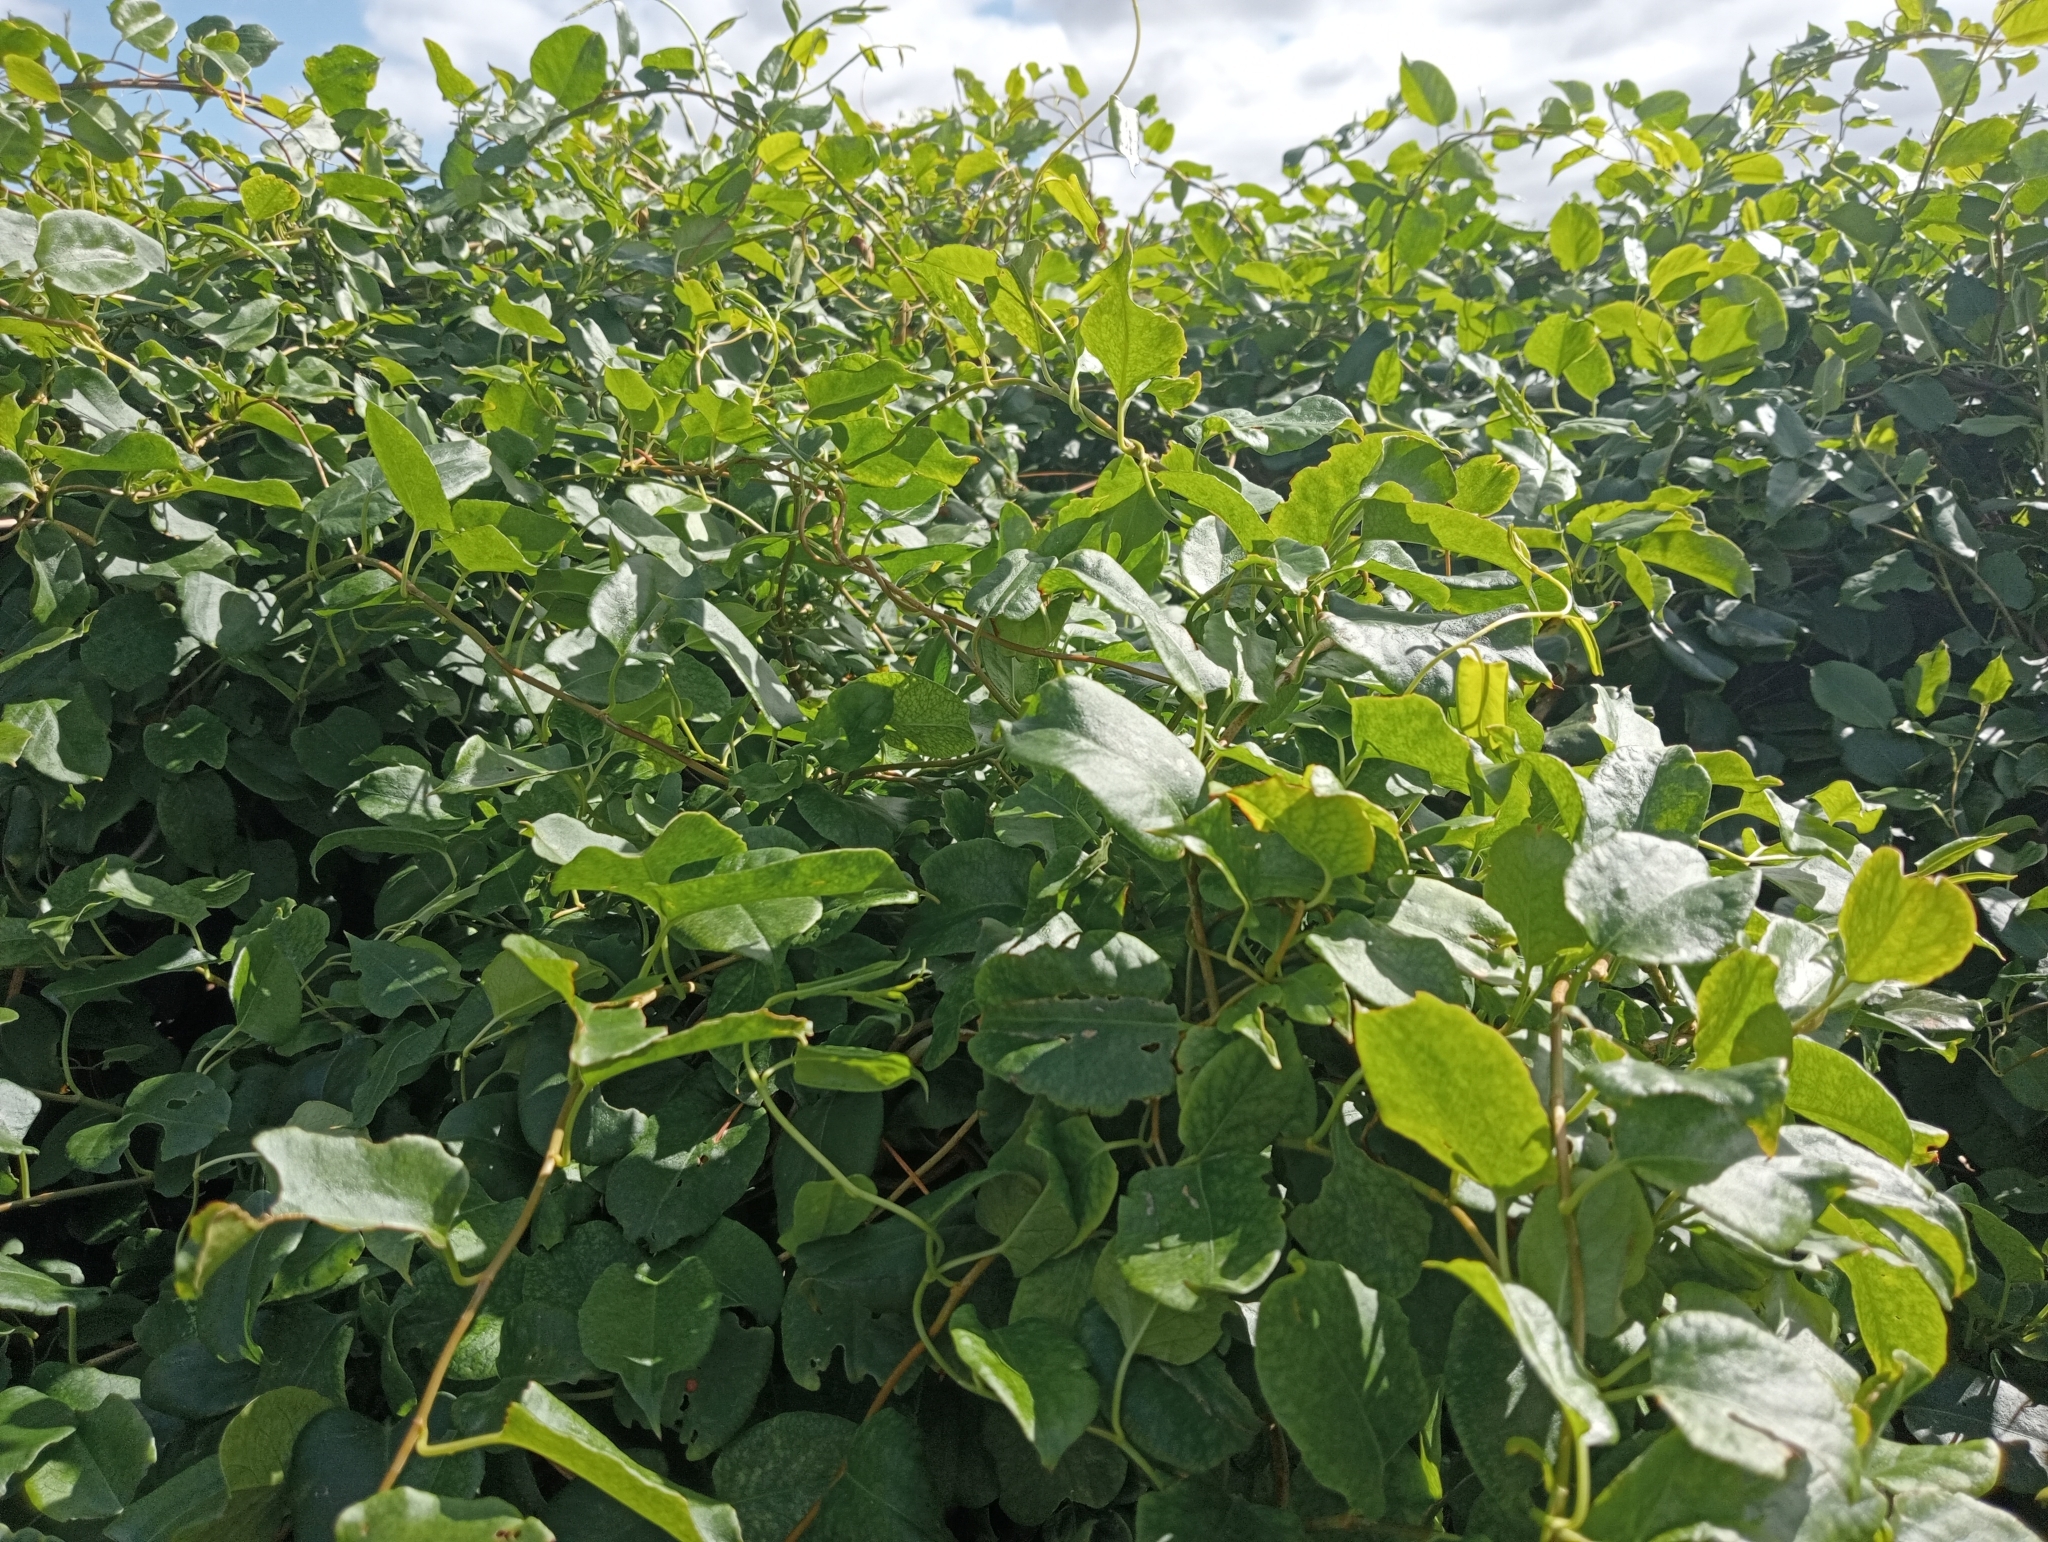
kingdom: Plantae
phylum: Tracheophyta
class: Magnoliopsida
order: Caryophyllales
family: Polygonaceae
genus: Muehlenbeckia
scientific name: Muehlenbeckia australis
